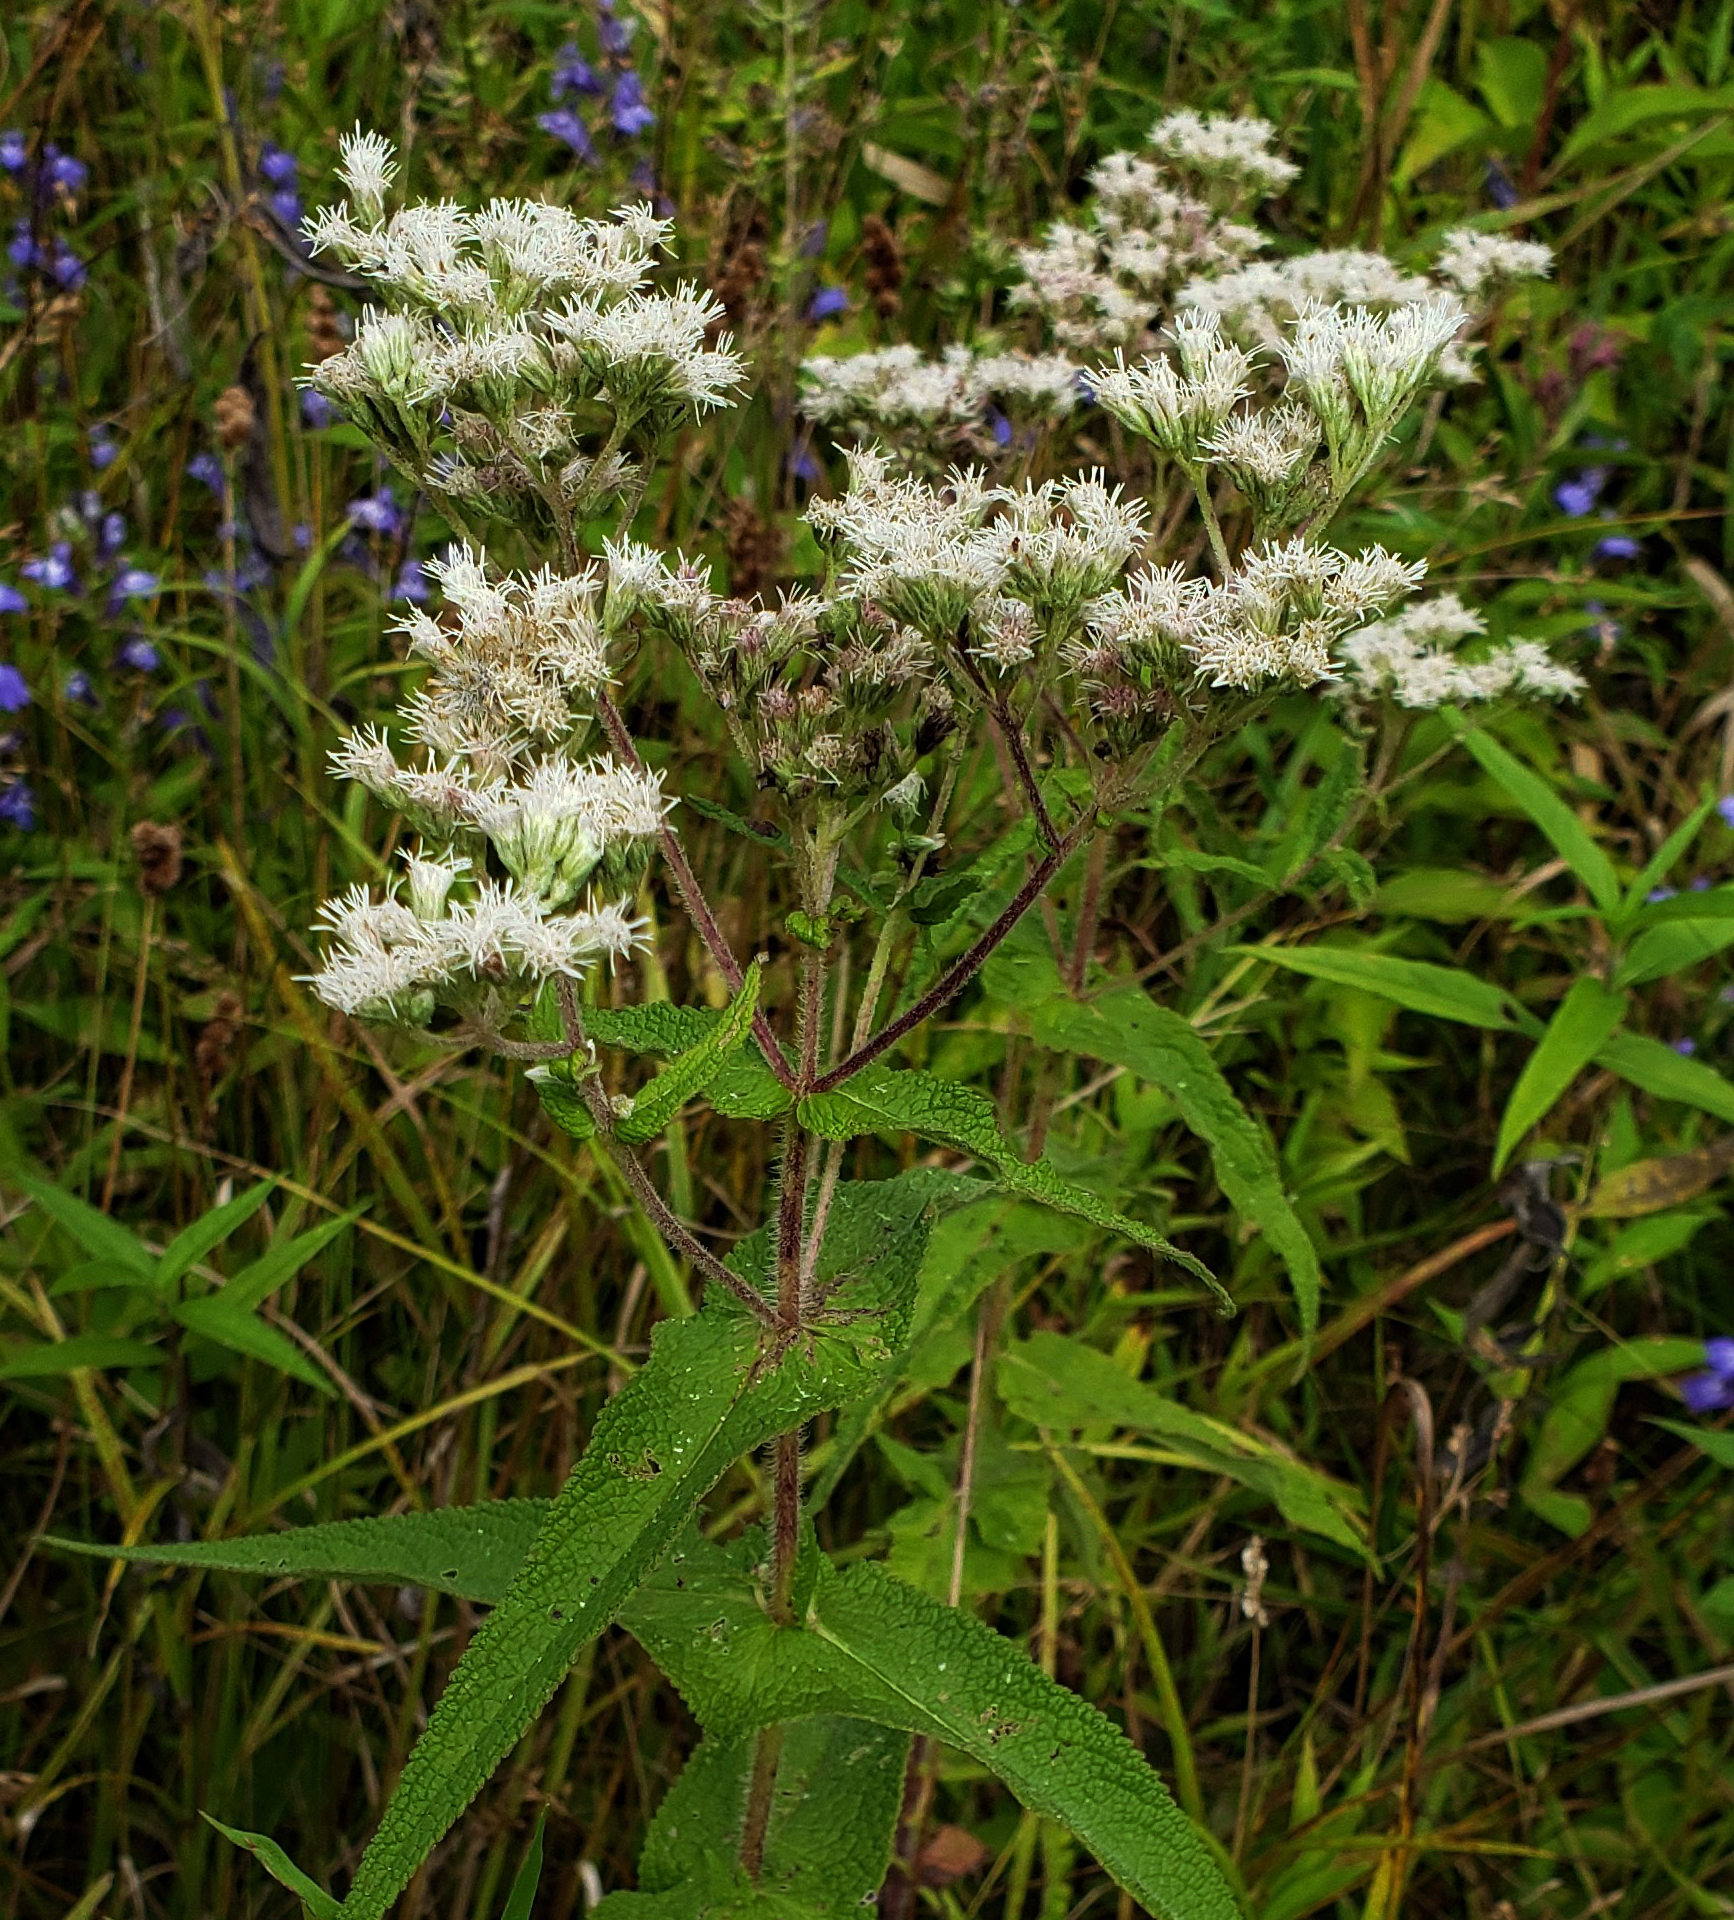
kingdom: Plantae
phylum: Tracheophyta
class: Magnoliopsida
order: Asterales
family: Asteraceae
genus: Eupatorium
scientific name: Eupatorium perfoliatum
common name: Boneset
